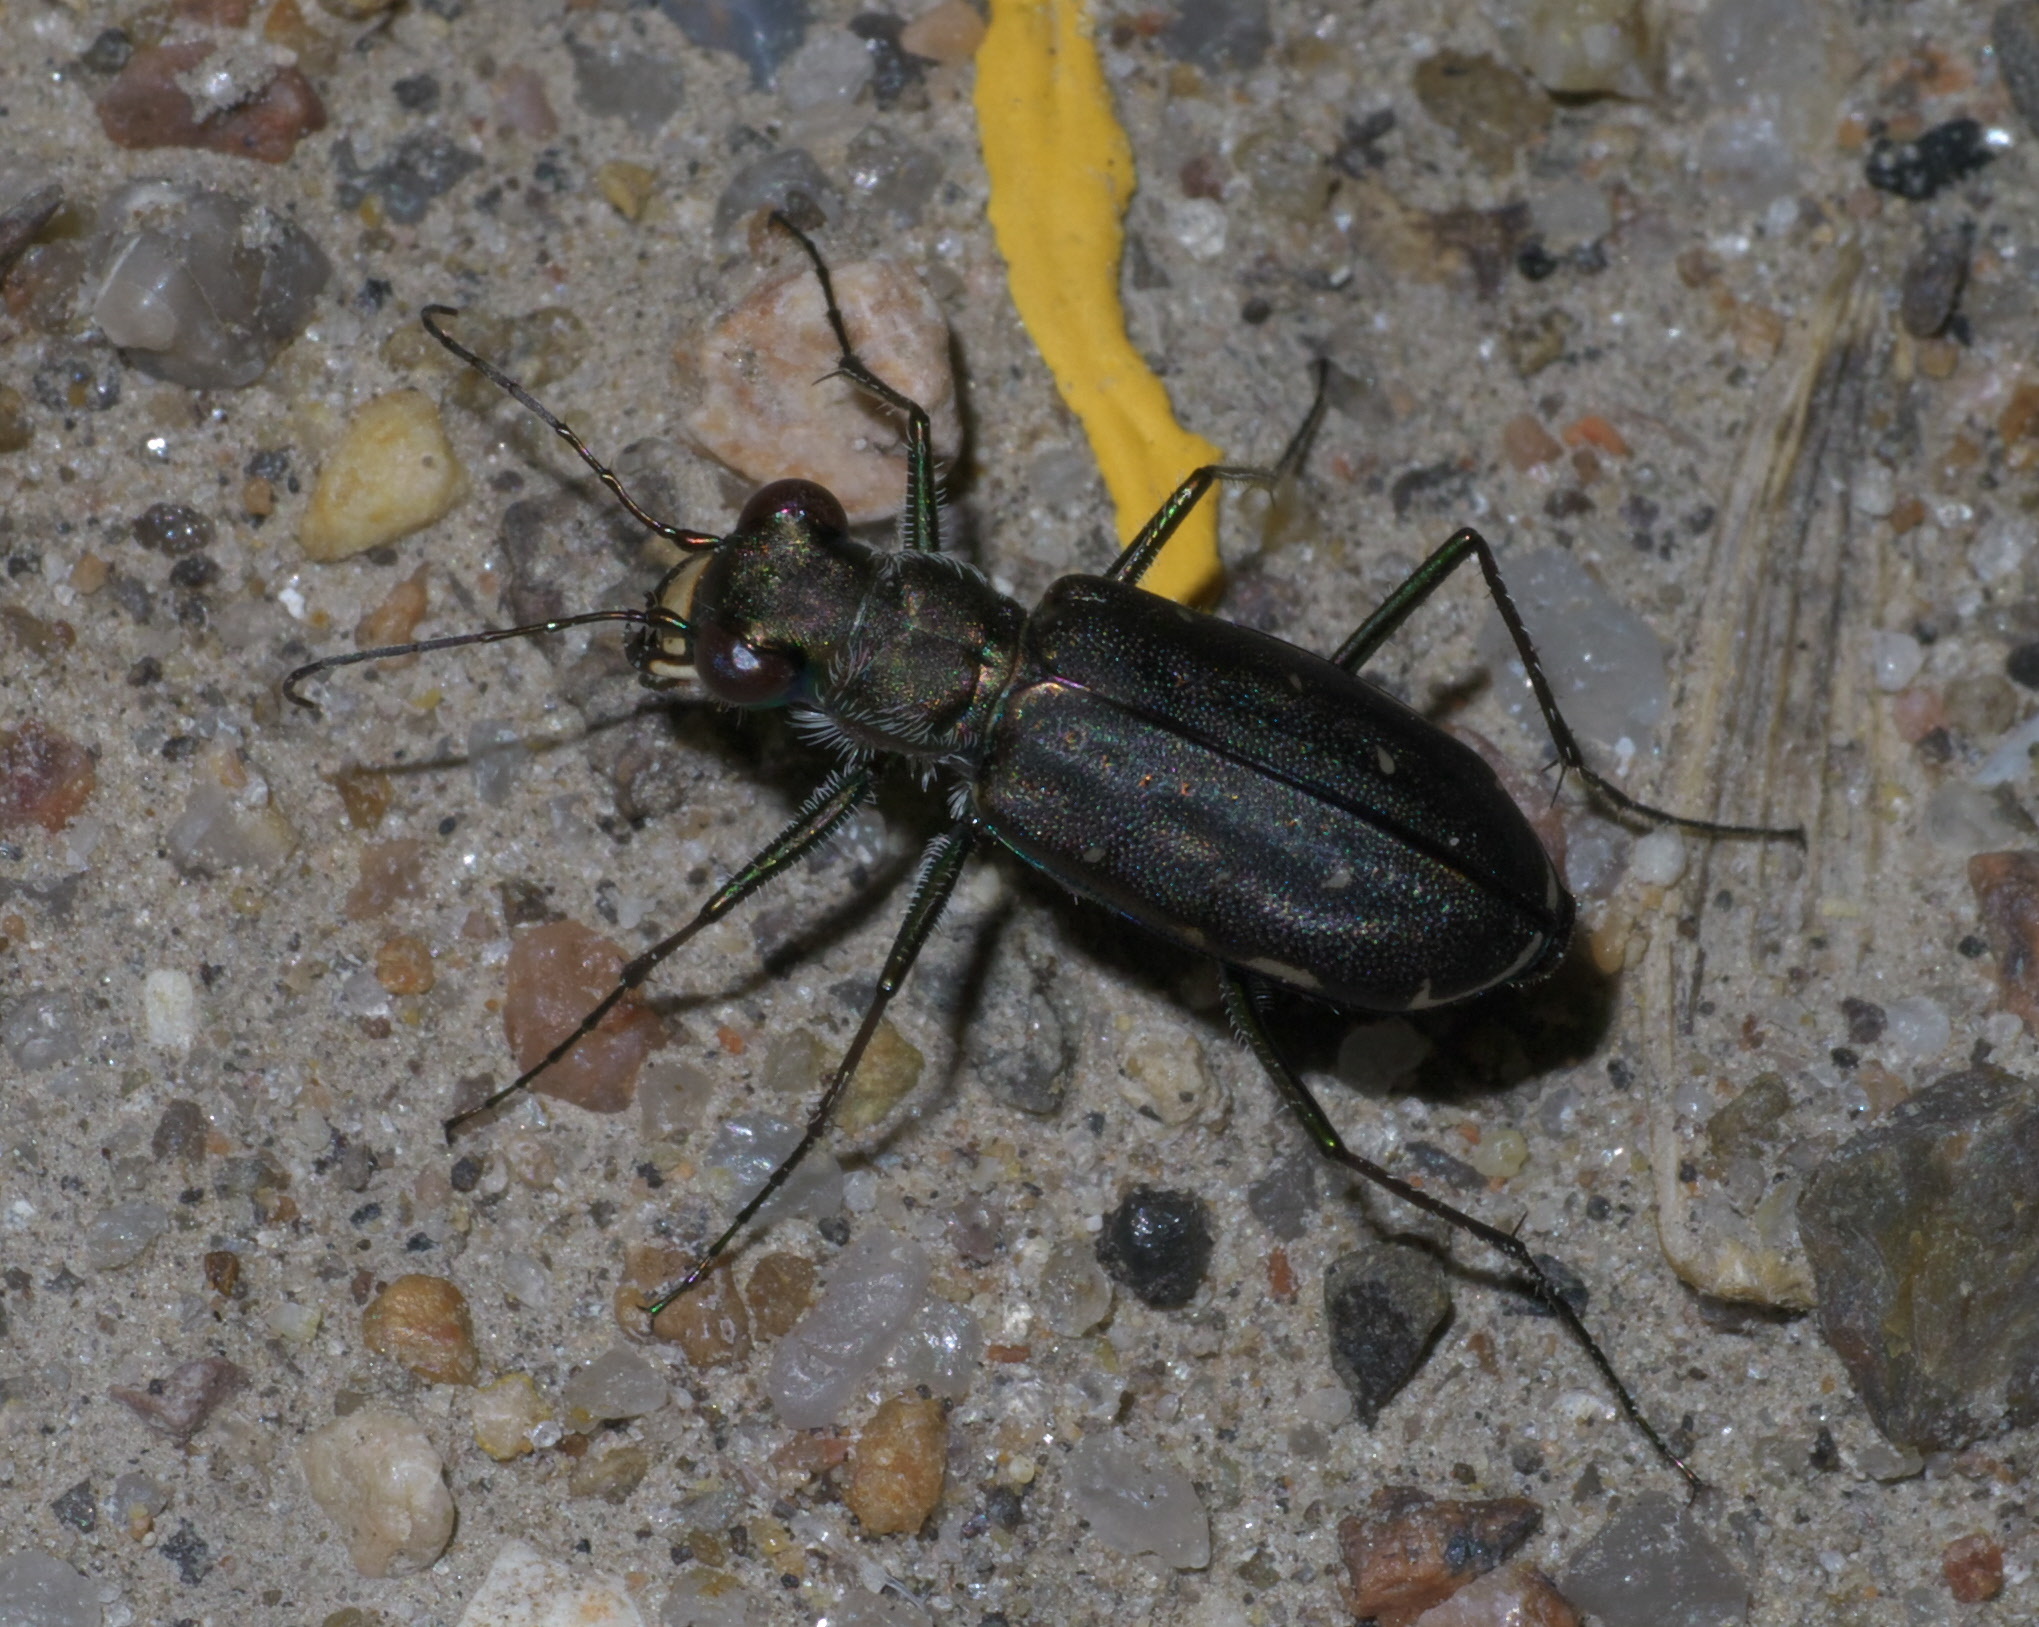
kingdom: Animalia
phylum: Arthropoda
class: Insecta
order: Coleoptera
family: Carabidae
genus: Cicindela
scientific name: Cicindela punctulata
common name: Punctured tiger beetle
